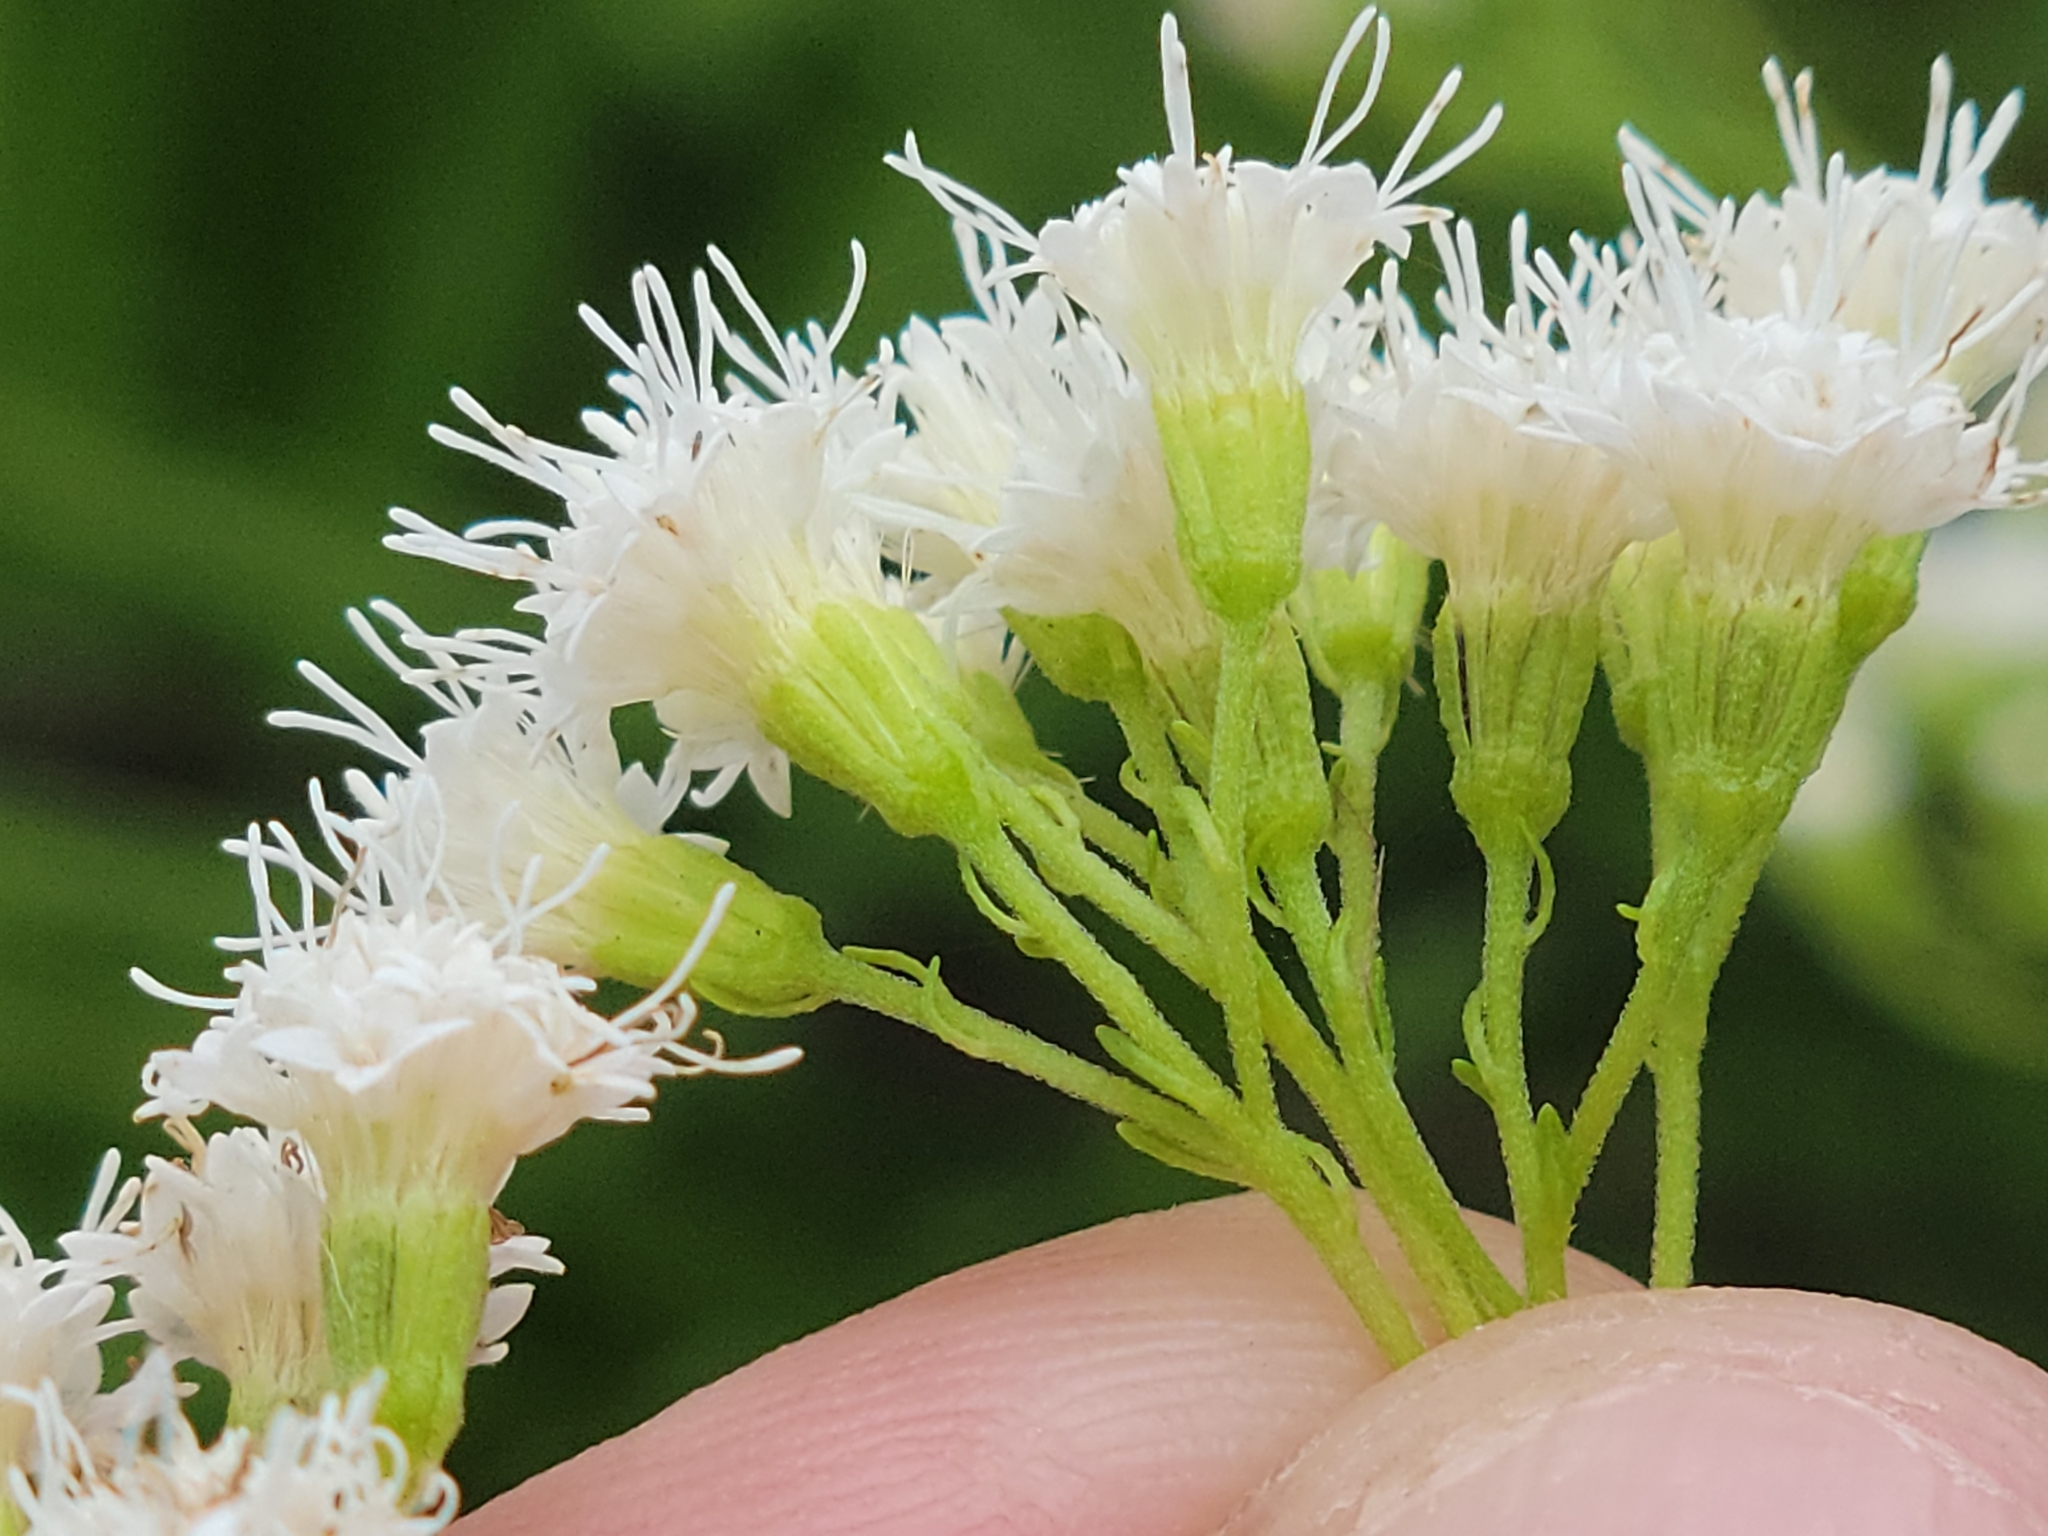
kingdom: Plantae
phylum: Tracheophyta
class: Magnoliopsida
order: Asterales
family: Asteraceae
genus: Ageratina
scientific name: Ageratina jucunda
